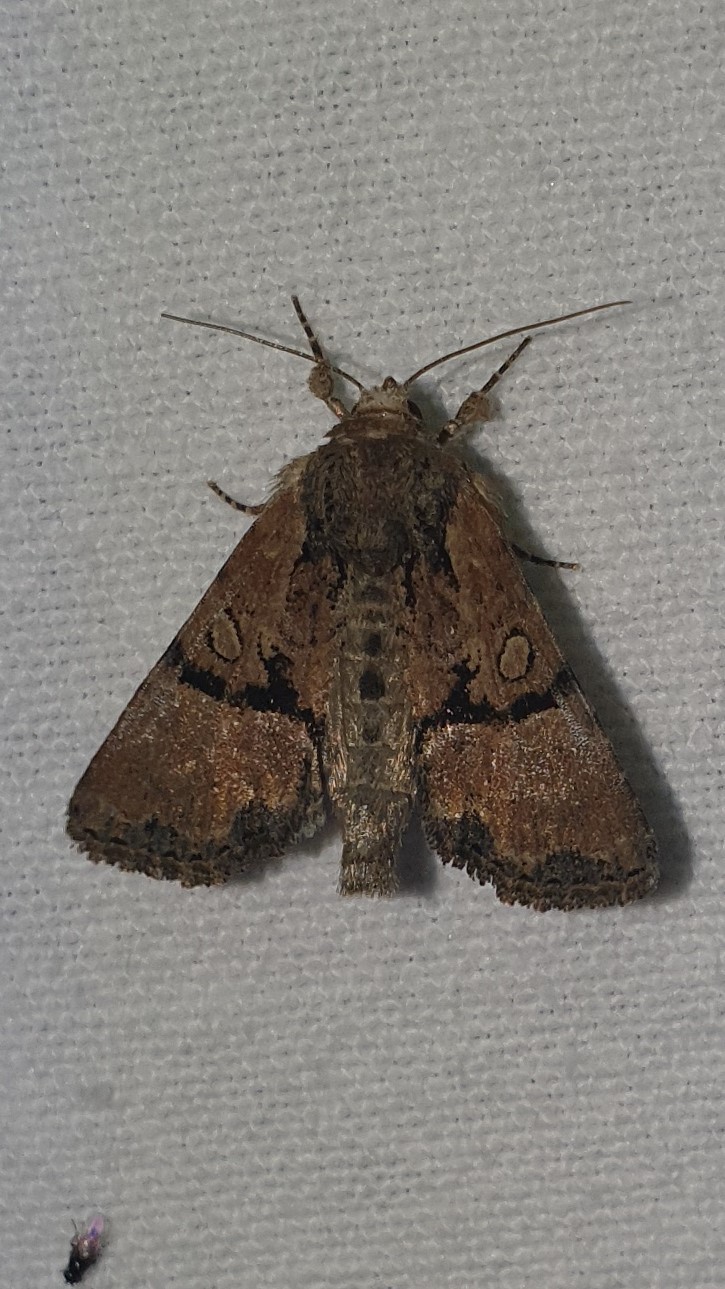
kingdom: Animalia
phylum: Arthropoda
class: Insecta
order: Lepidoptera
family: Noctuidae
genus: Mesoligia
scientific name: Mesoligia furuncula
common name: Cloaked minor
